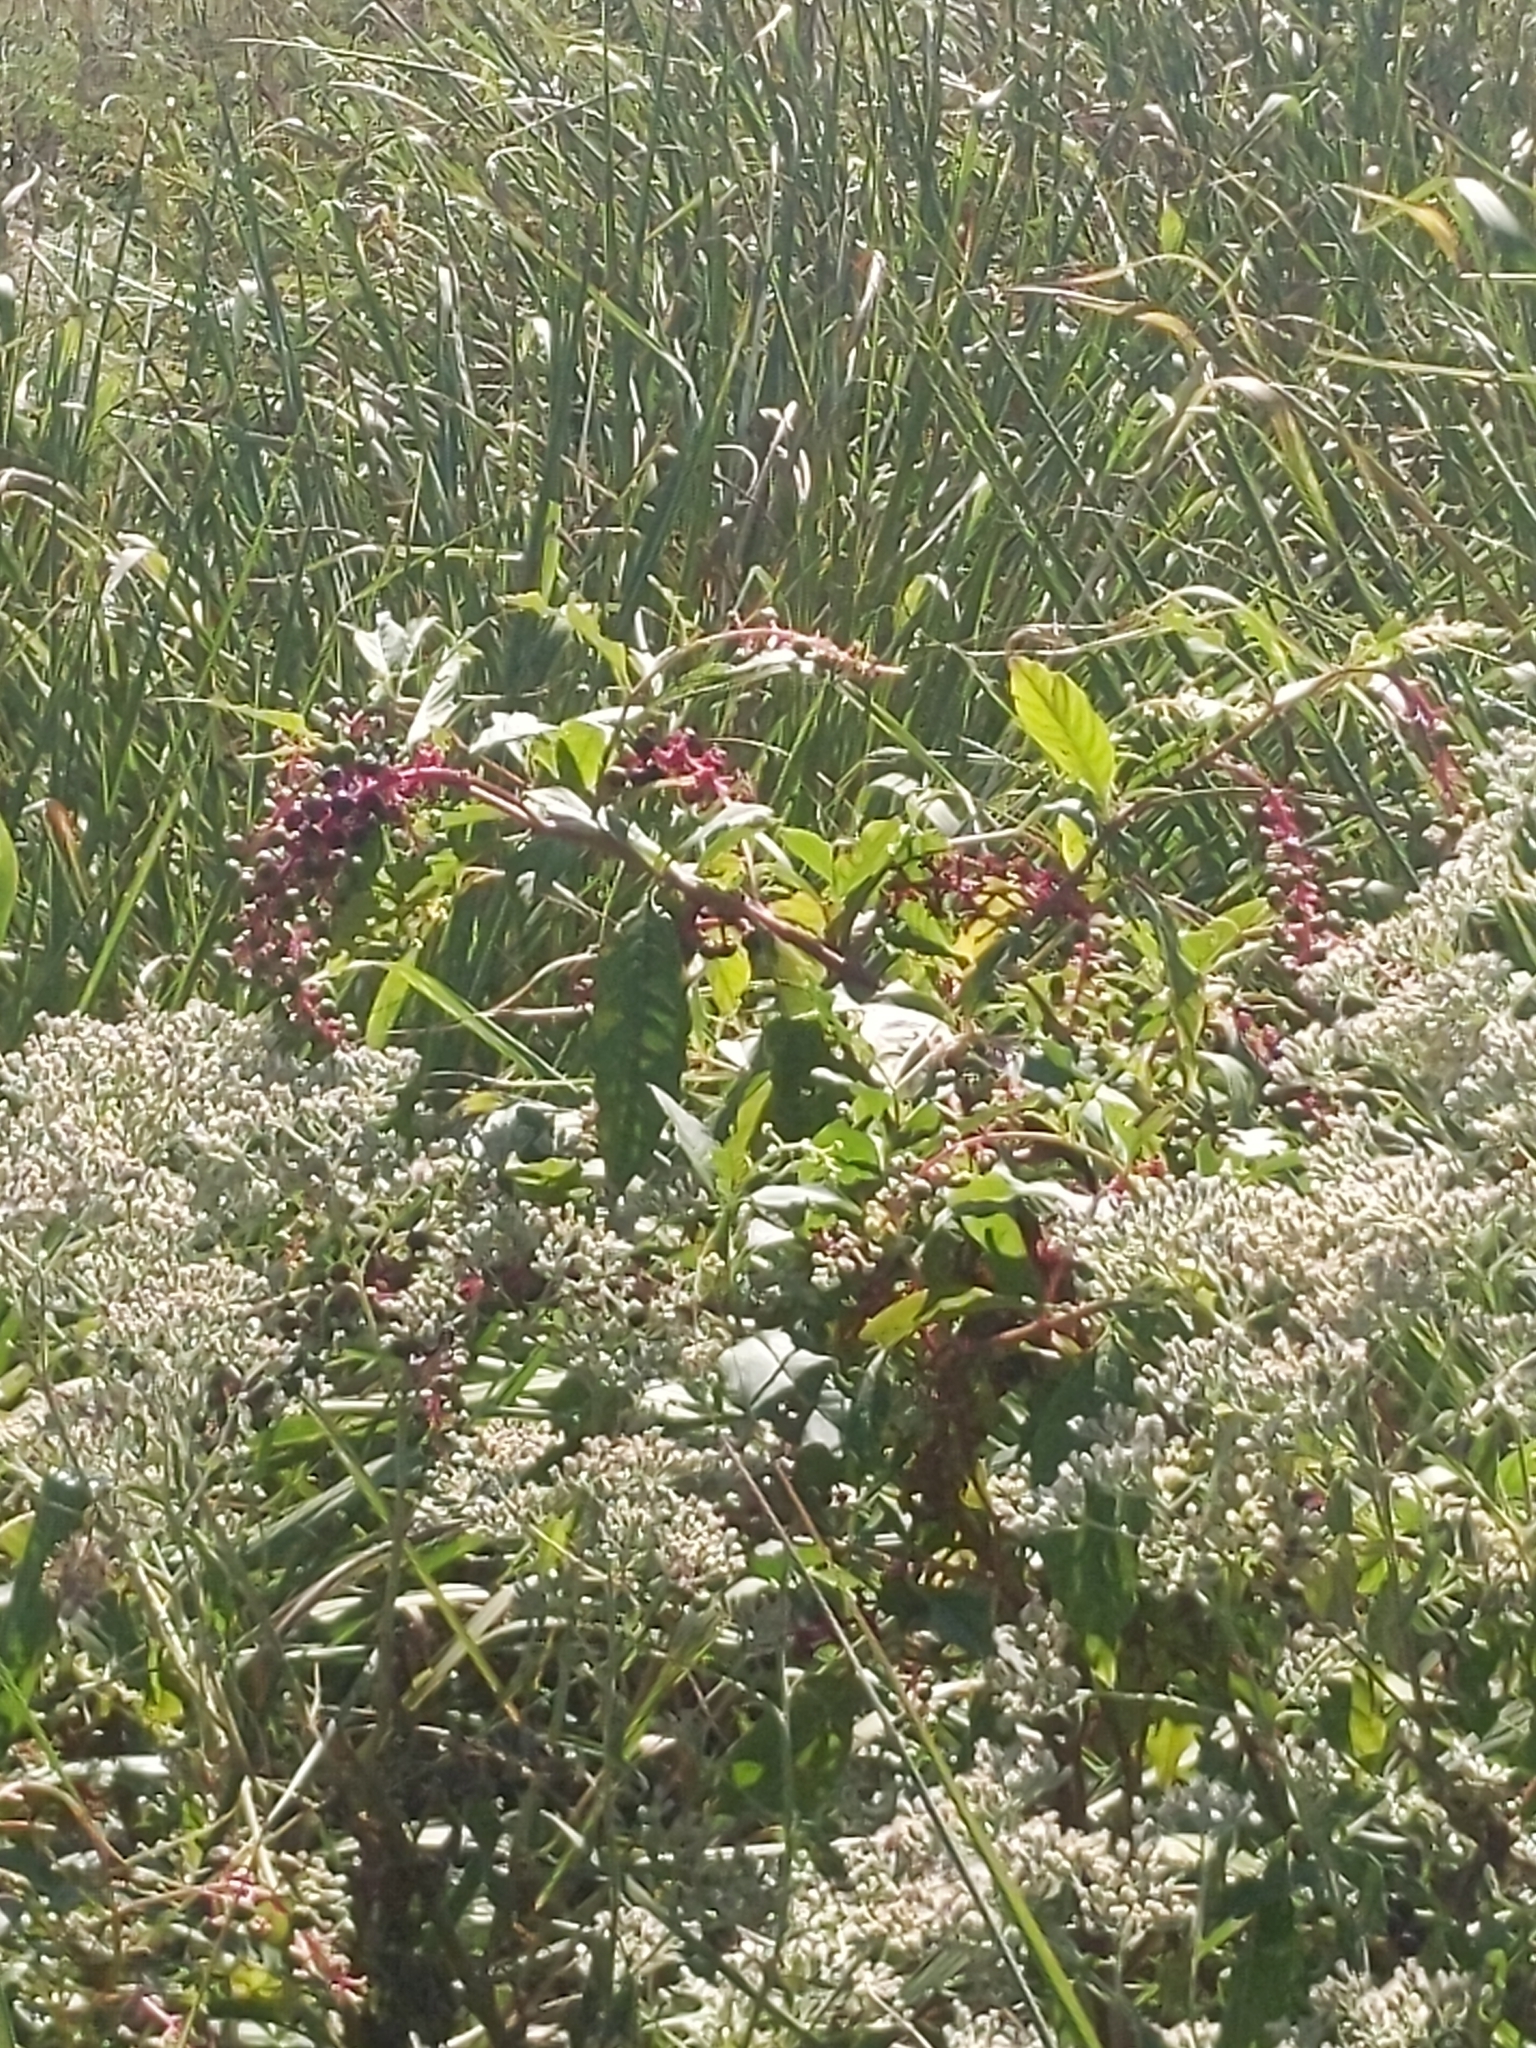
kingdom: Plantae
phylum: Tracheophyta
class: Magnoliopsida
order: Caryophyllales
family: Phytolaccaceae
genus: Phytolacca
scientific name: Phytolacca americana
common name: American pokeweed
